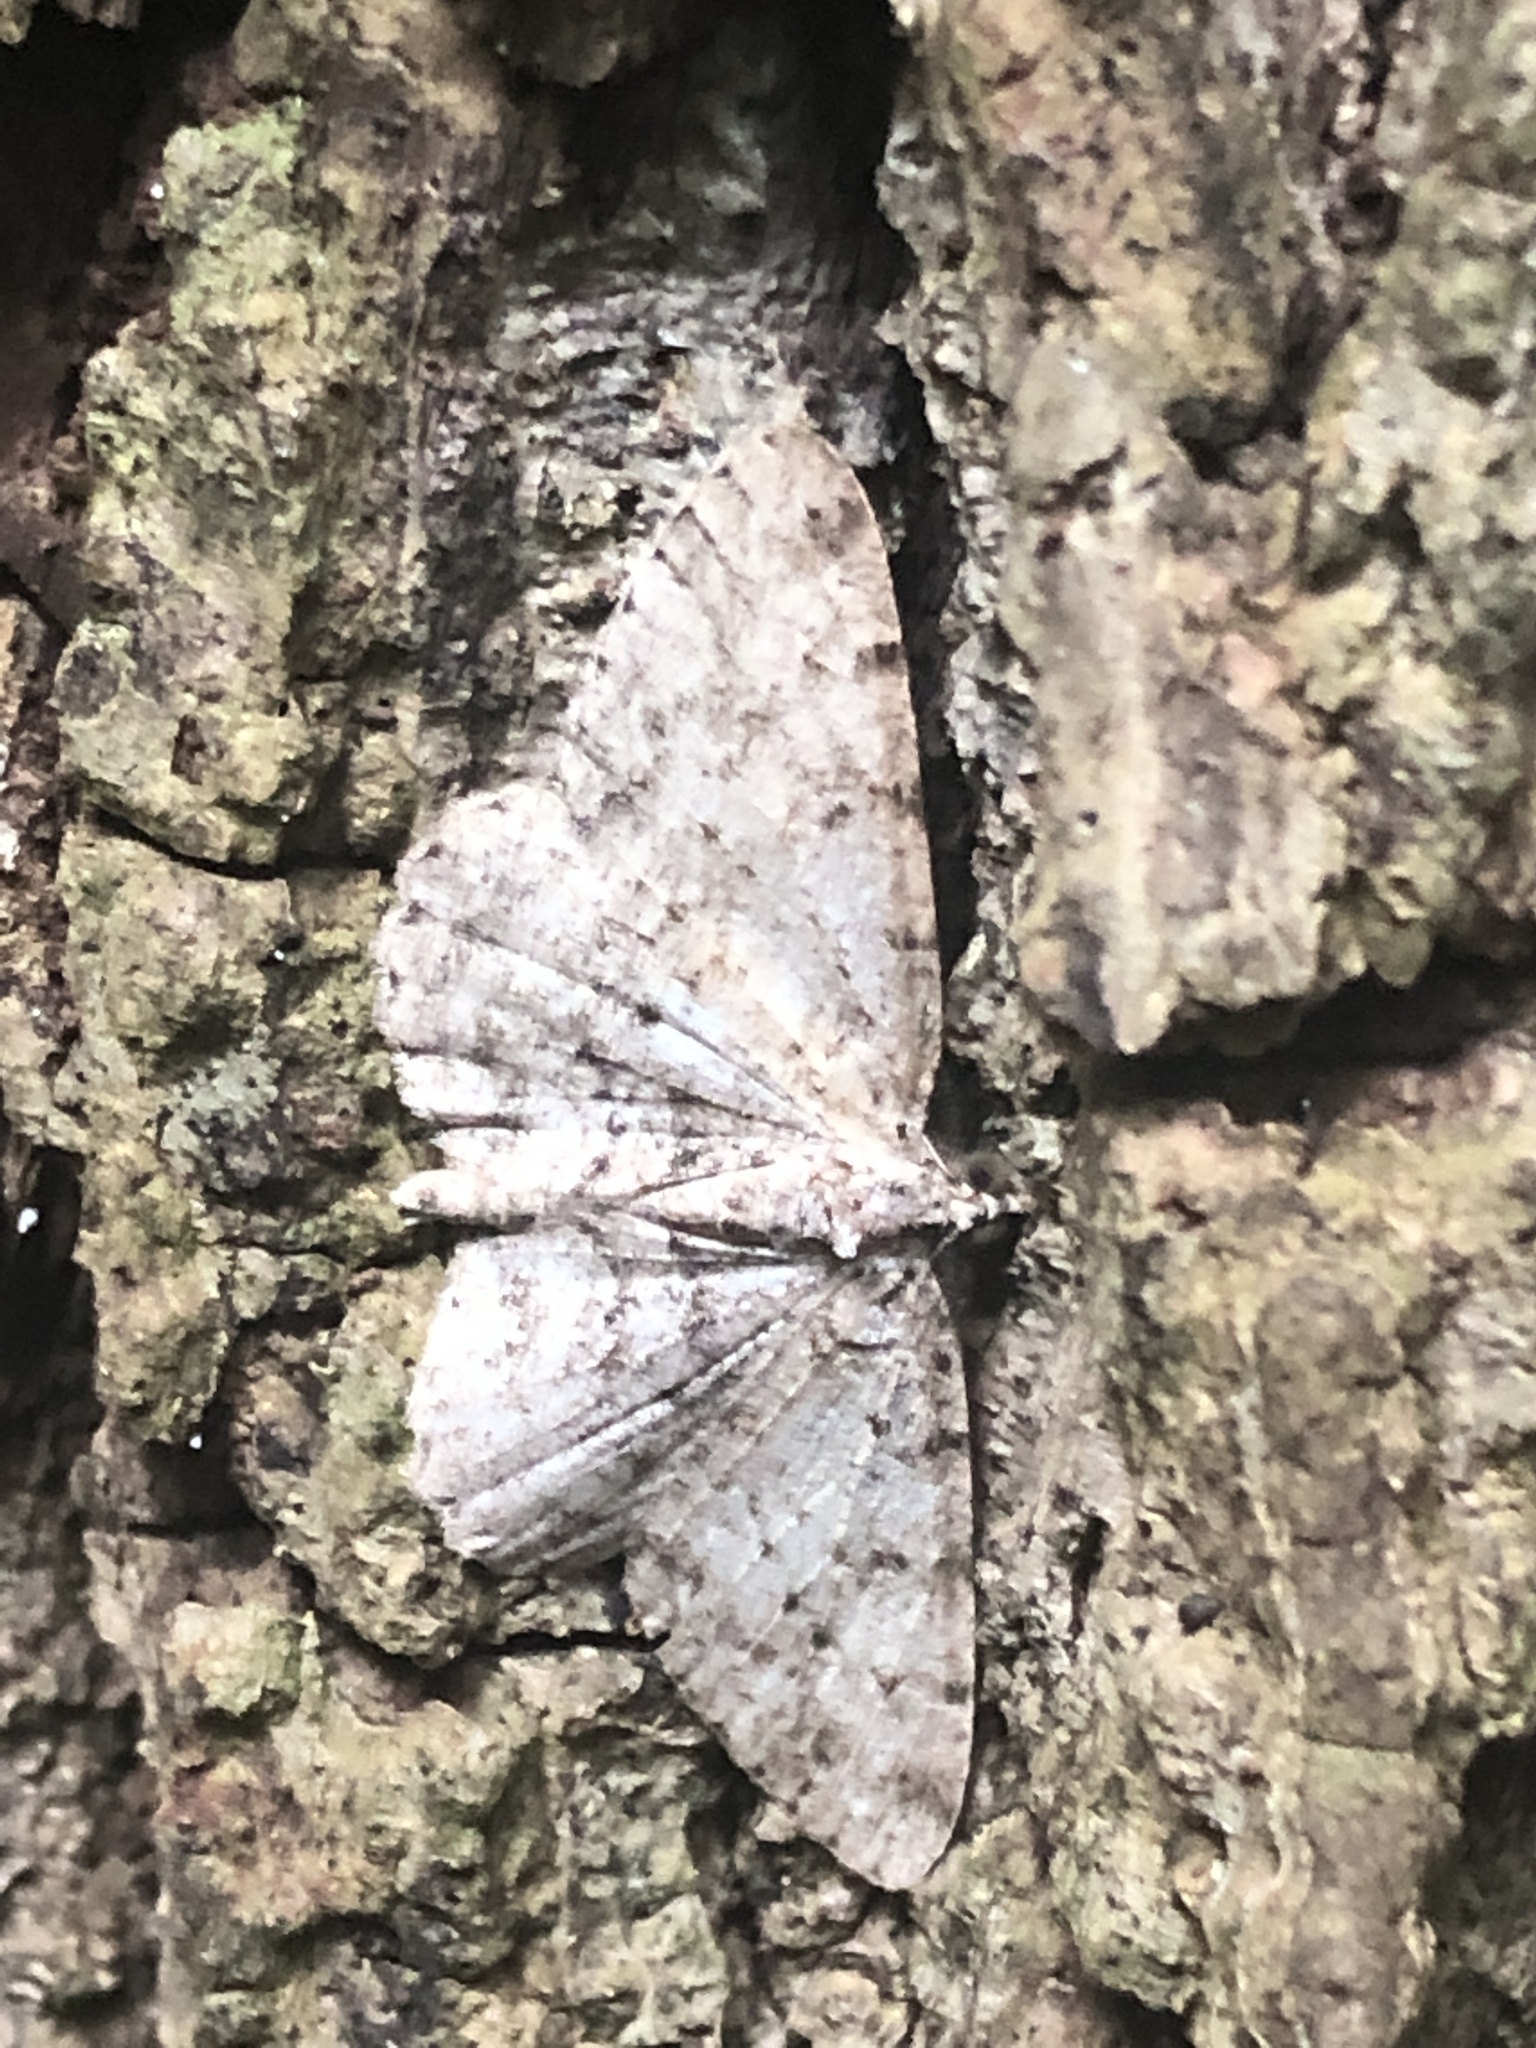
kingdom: Animalia
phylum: Arthropoda
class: Insecta
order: Lepidoptera
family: Geometridae
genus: Protoboarmia
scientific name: Protoboarmia porcelaria
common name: Porcelain gray
